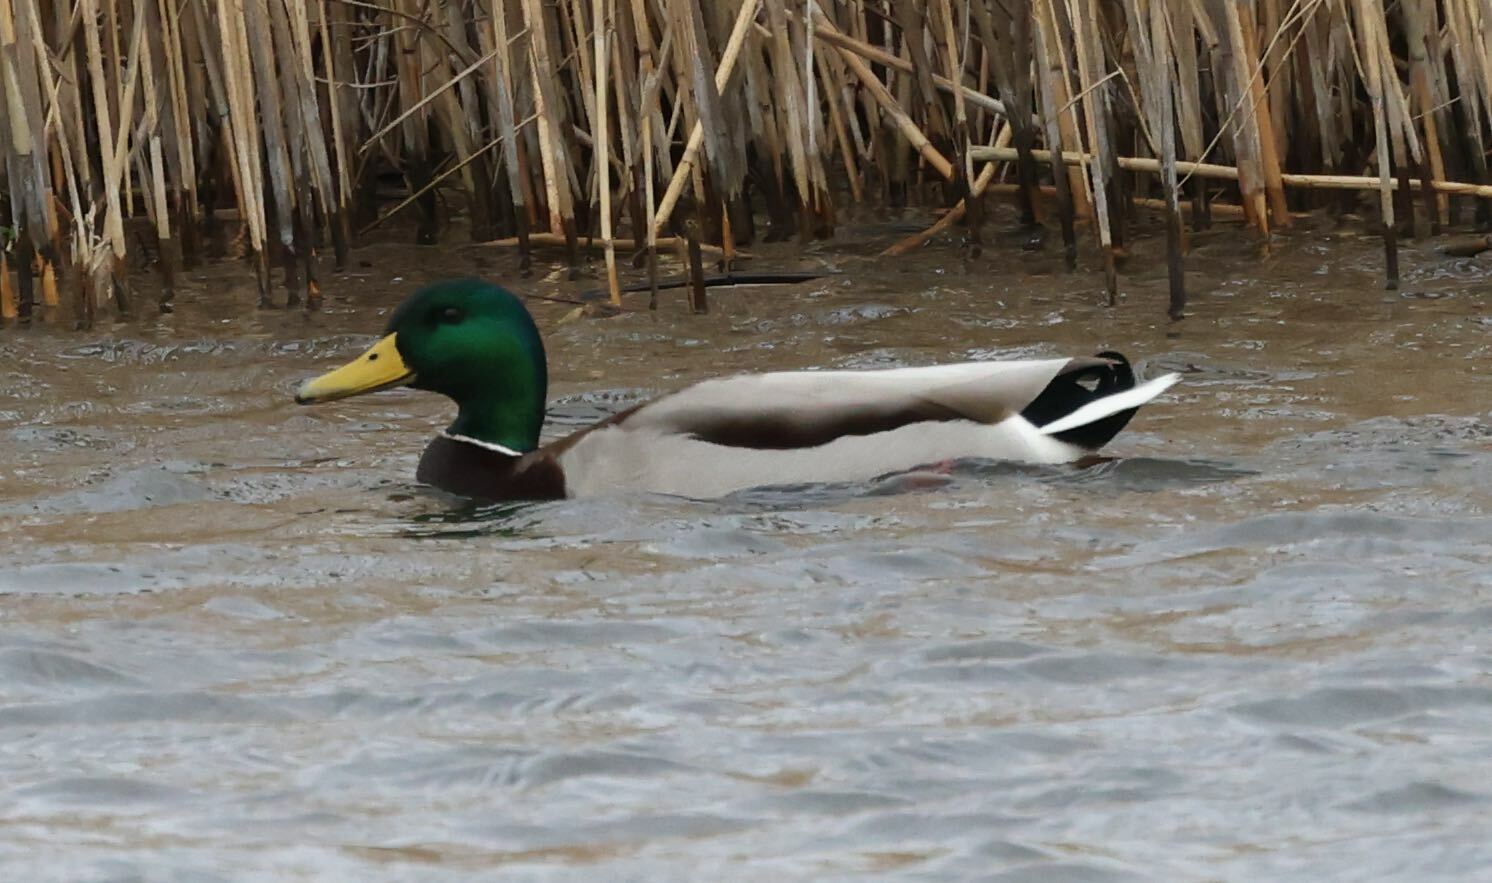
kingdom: Animalia
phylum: Chordata
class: Aves
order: Anseriformes
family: Anatidae
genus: Anas
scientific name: Anas platyrhynchos
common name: Mallard
